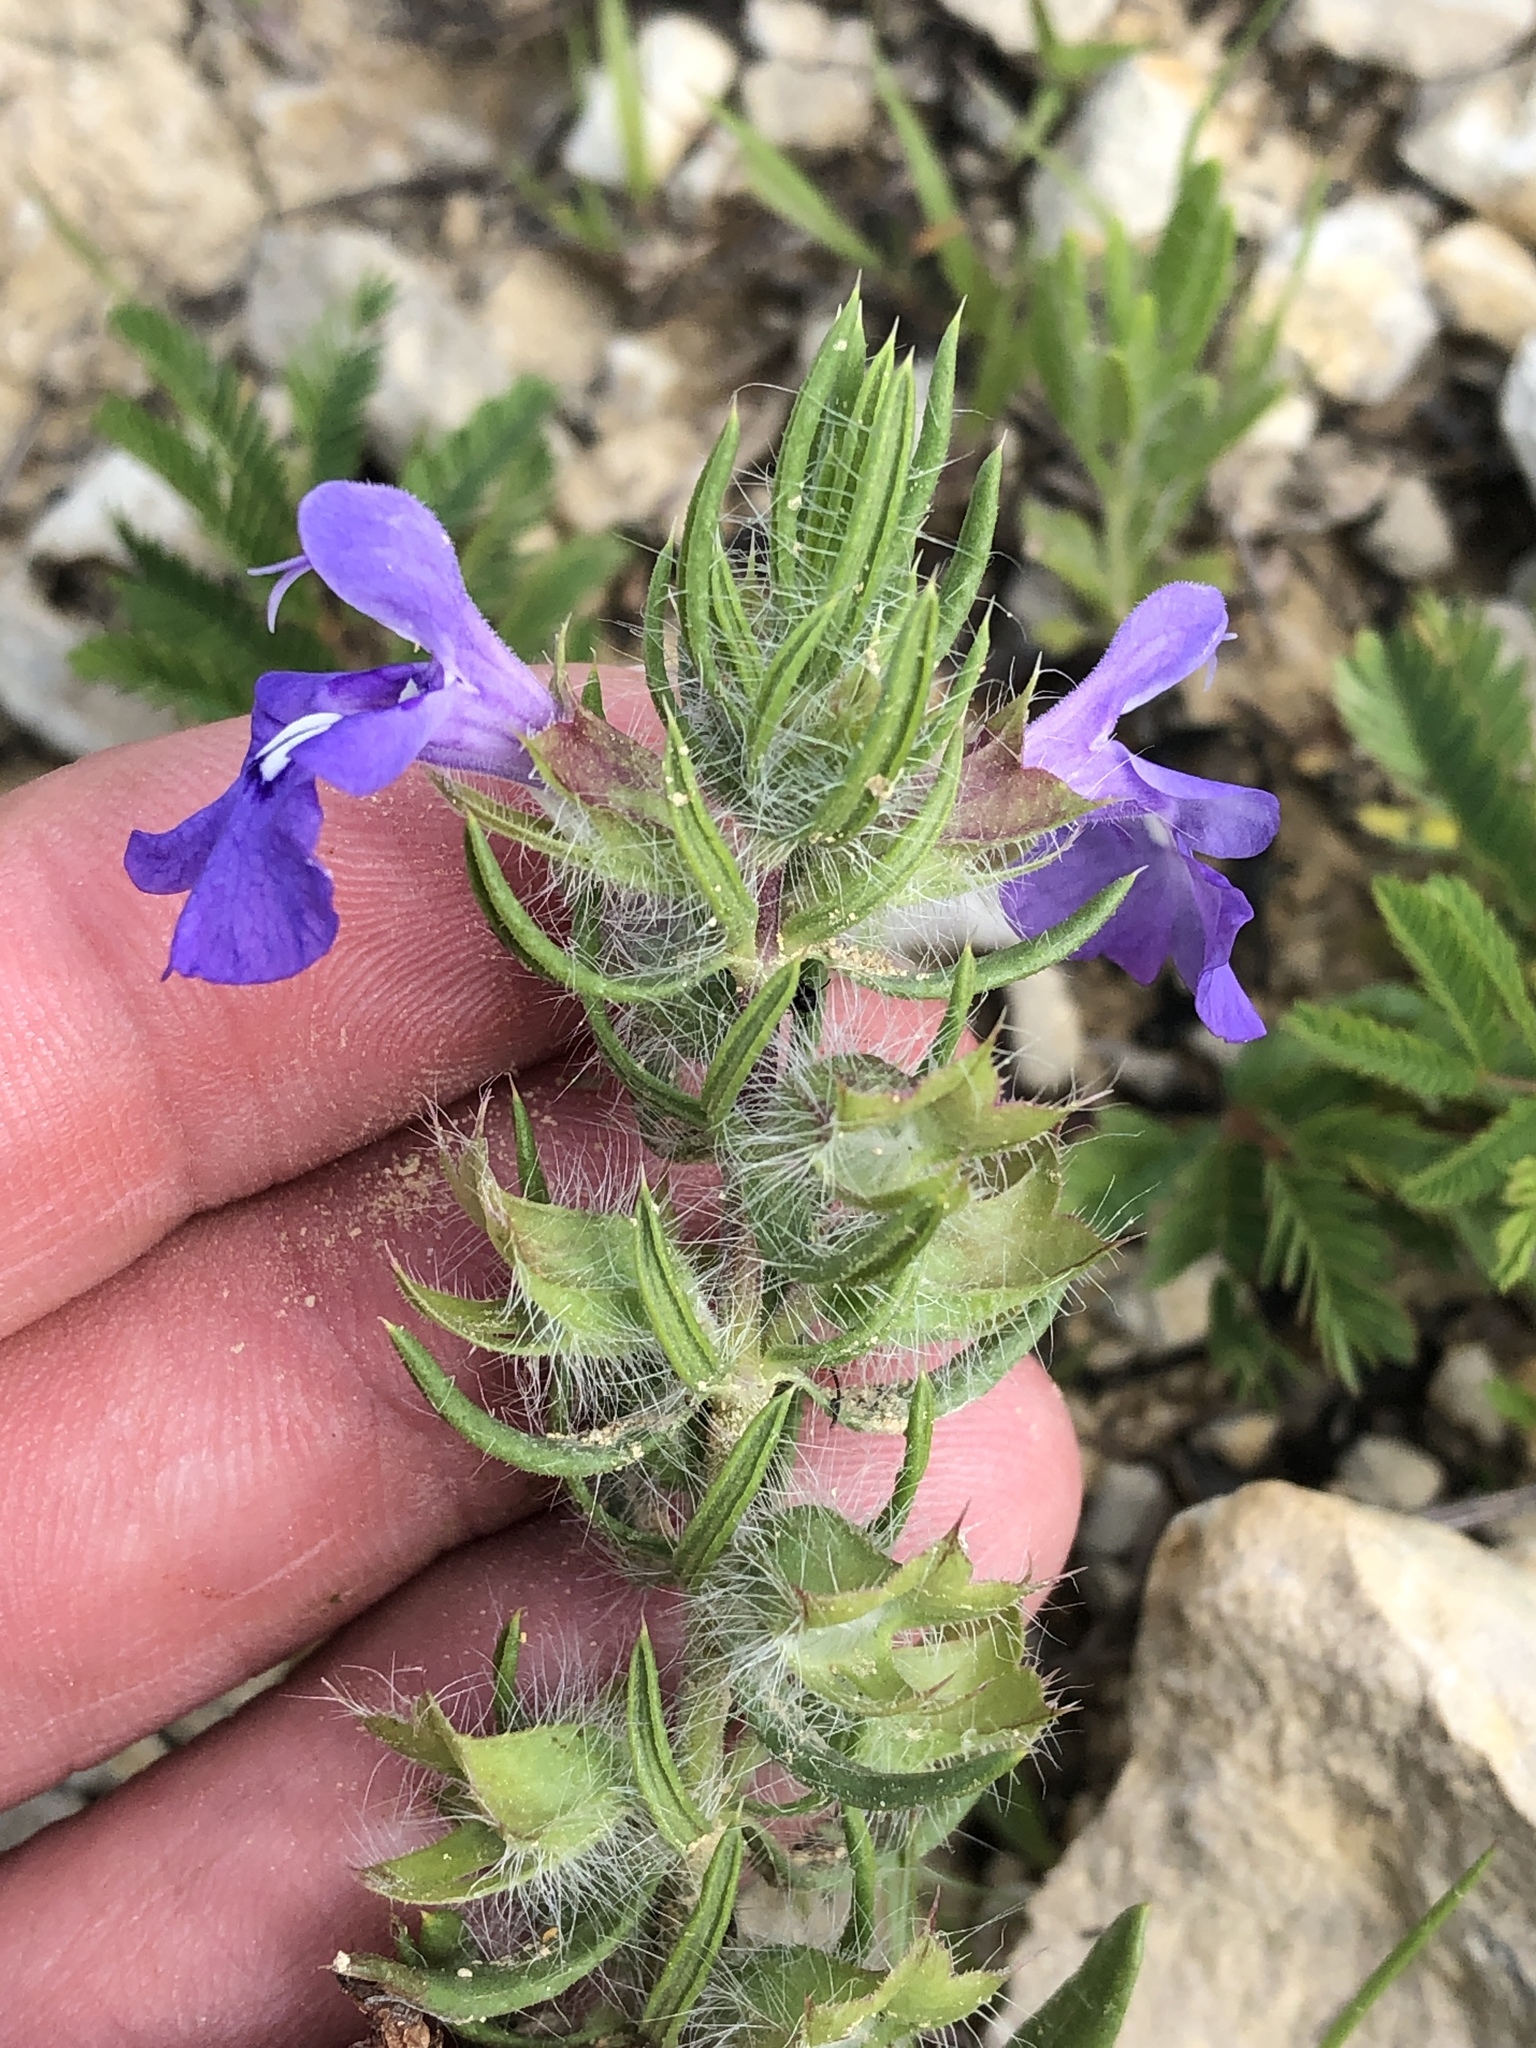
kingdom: Plantae
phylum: Tracheophyta
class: Magnoliopsida
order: Lamiales
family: Lamiaceae
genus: Salvia
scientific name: Salvia texana
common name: Texas sage
